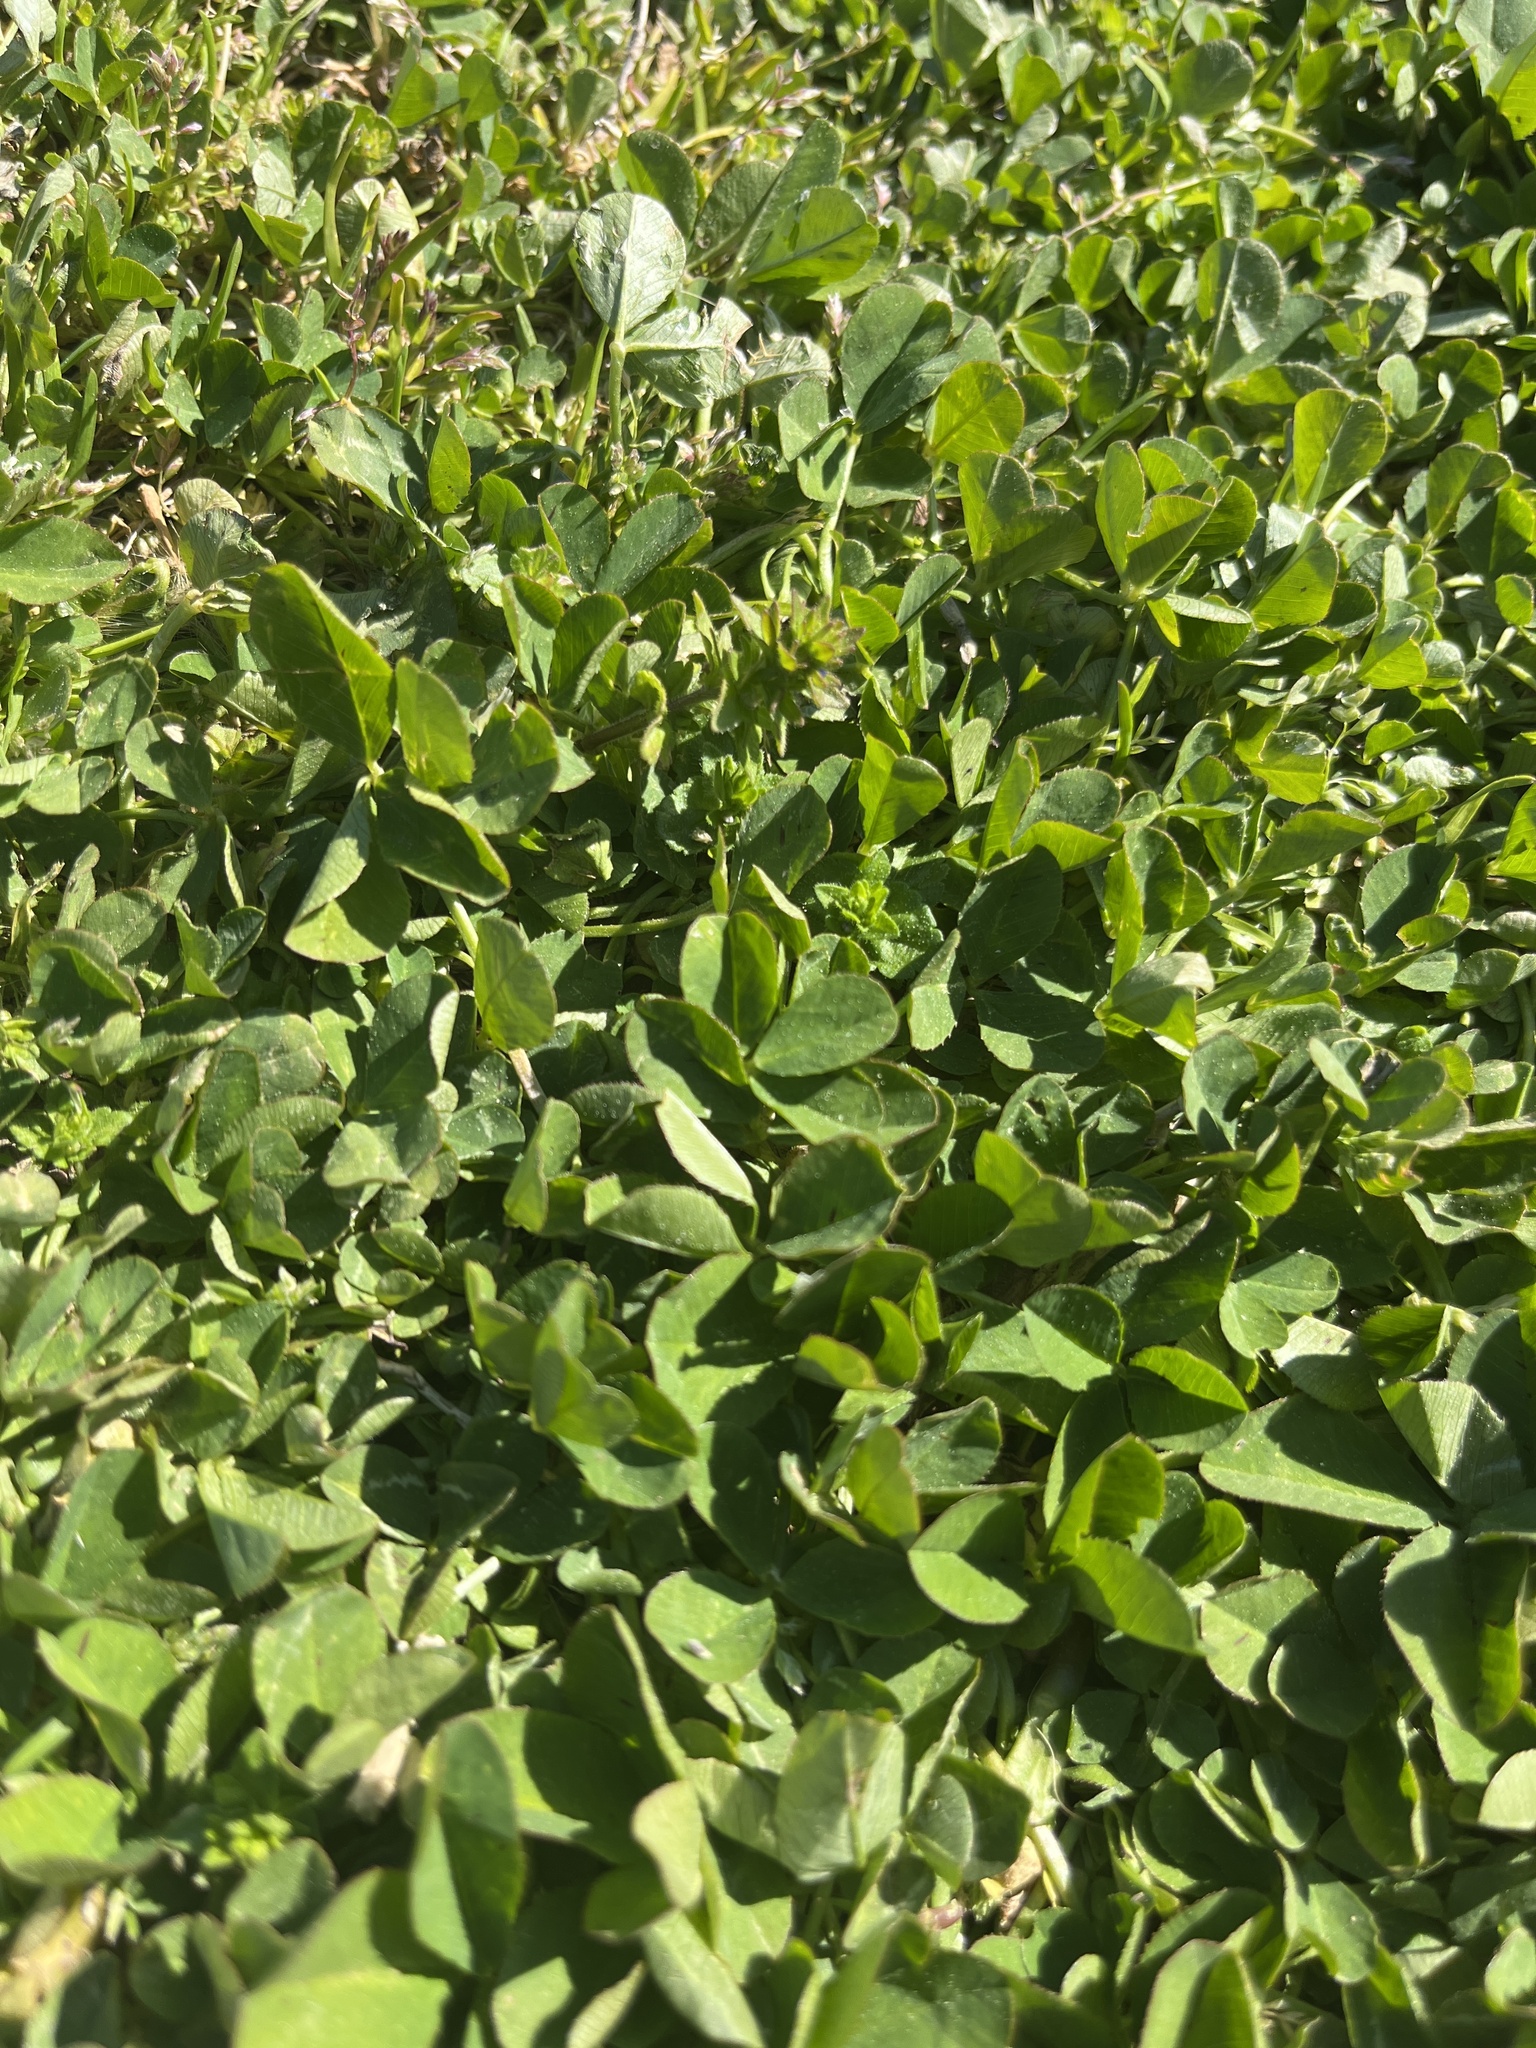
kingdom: Plantae
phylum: Tracheophyta
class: Magnoliopsida
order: Fabales
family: Fabaceae
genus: Trifolium
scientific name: Trifolium repens
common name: White clover
